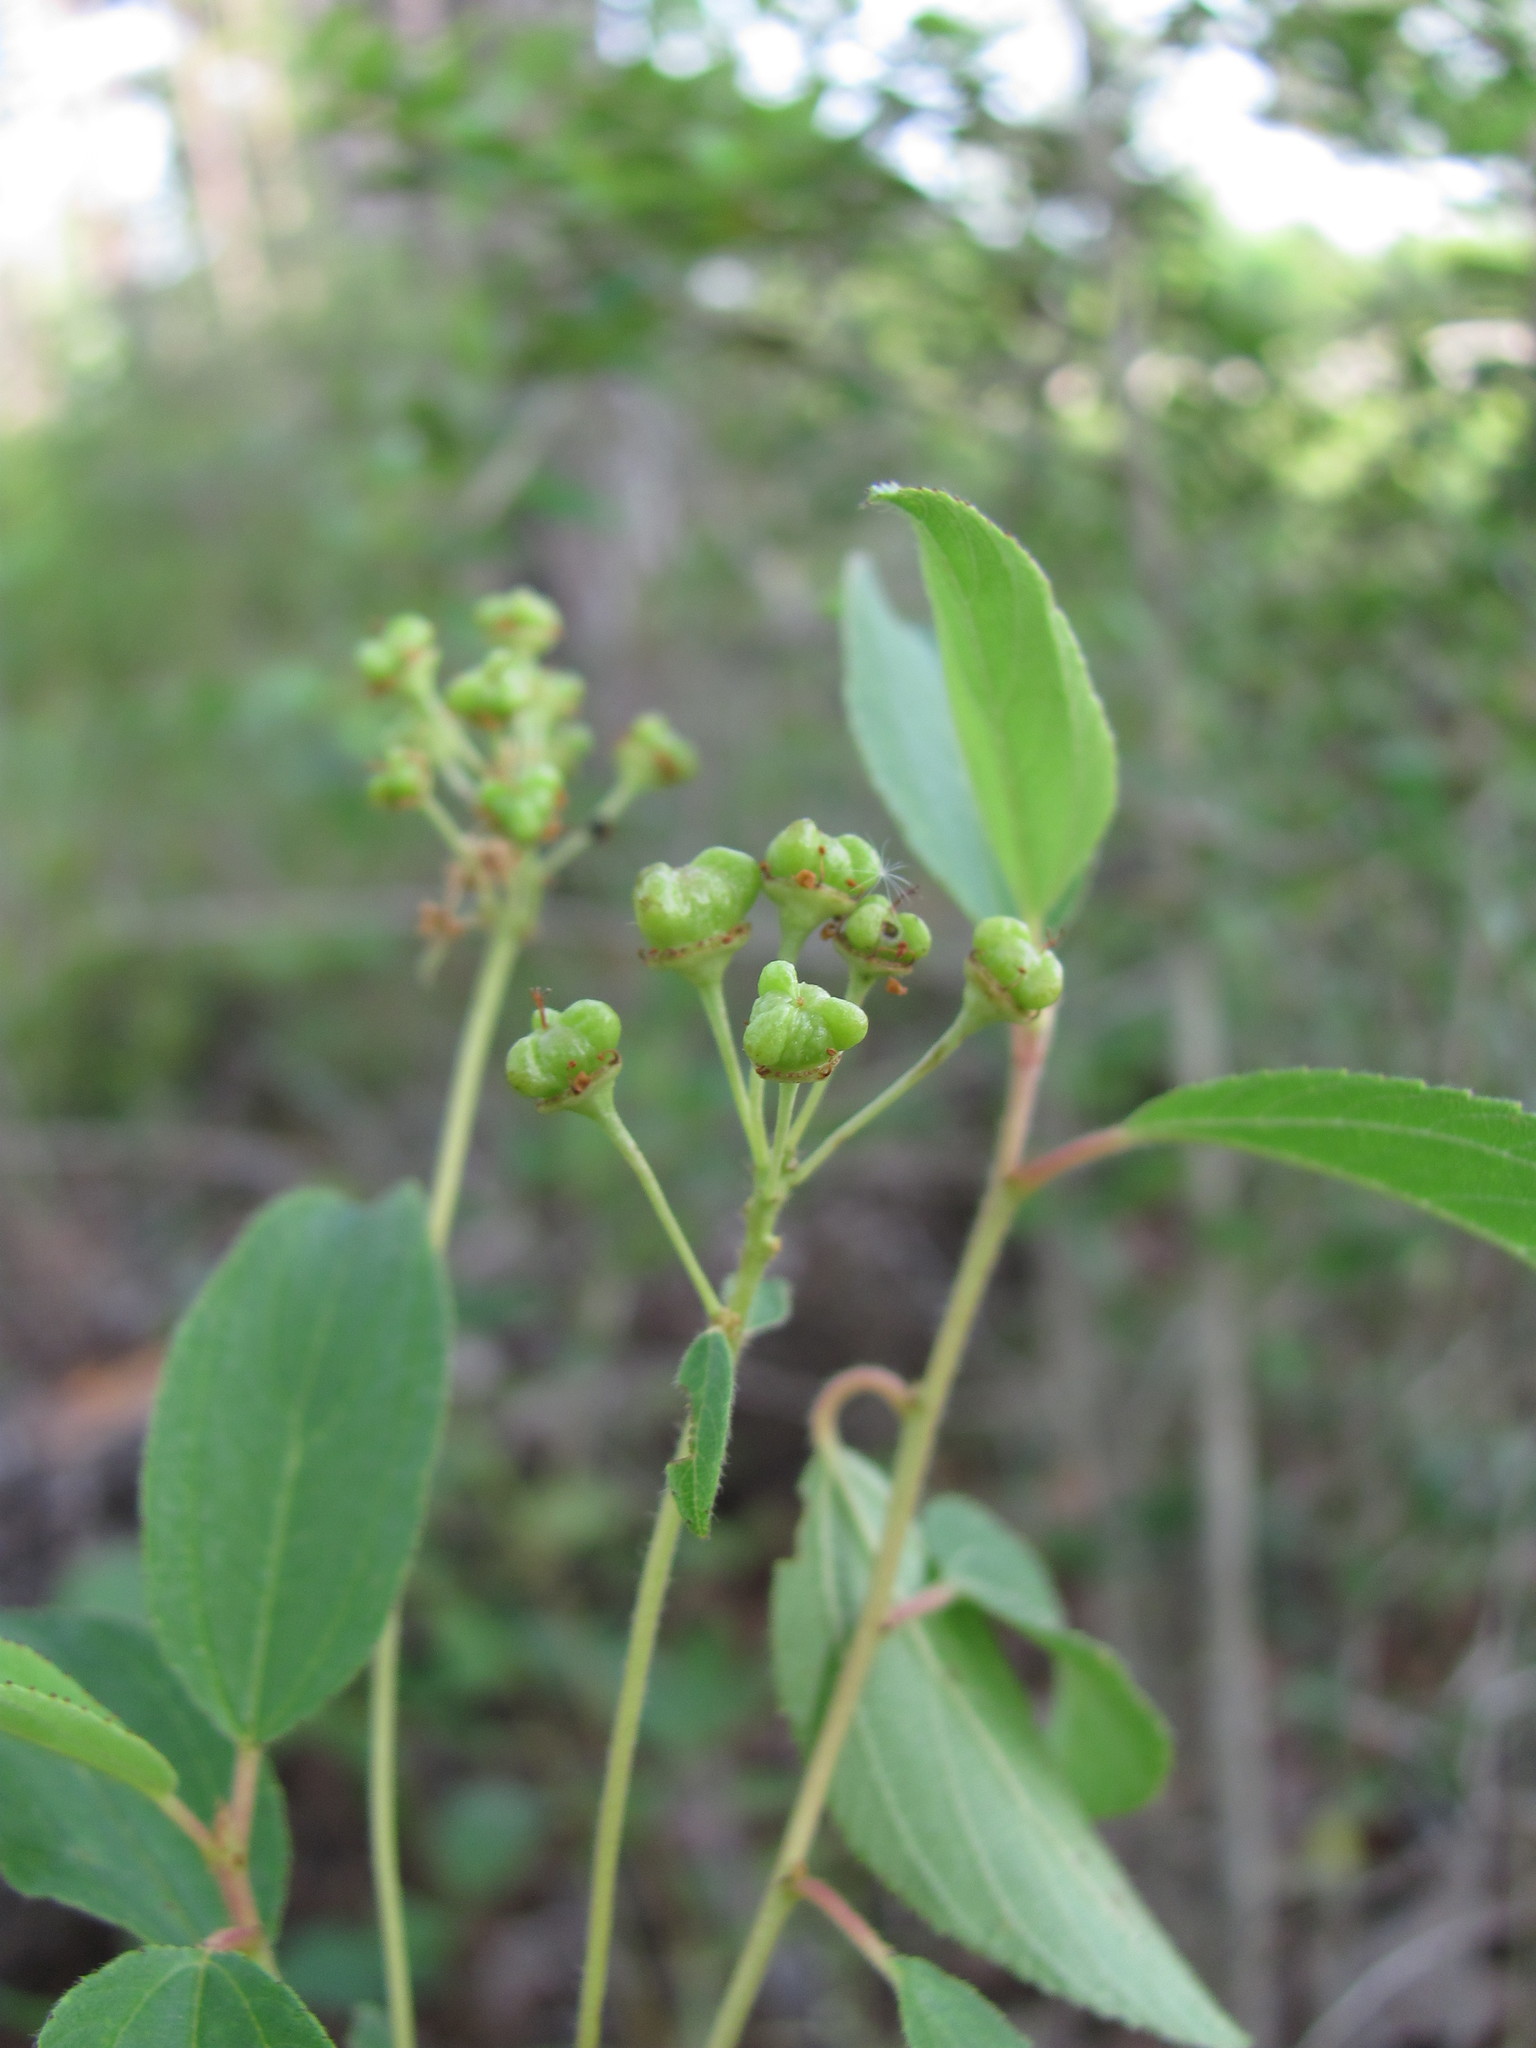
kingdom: Plantae
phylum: Tracheophyta
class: Magnoliopsida
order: Rosales
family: Rhamnaceae
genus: Ceanothus
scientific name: Ceanothus americanus
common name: Redroot
